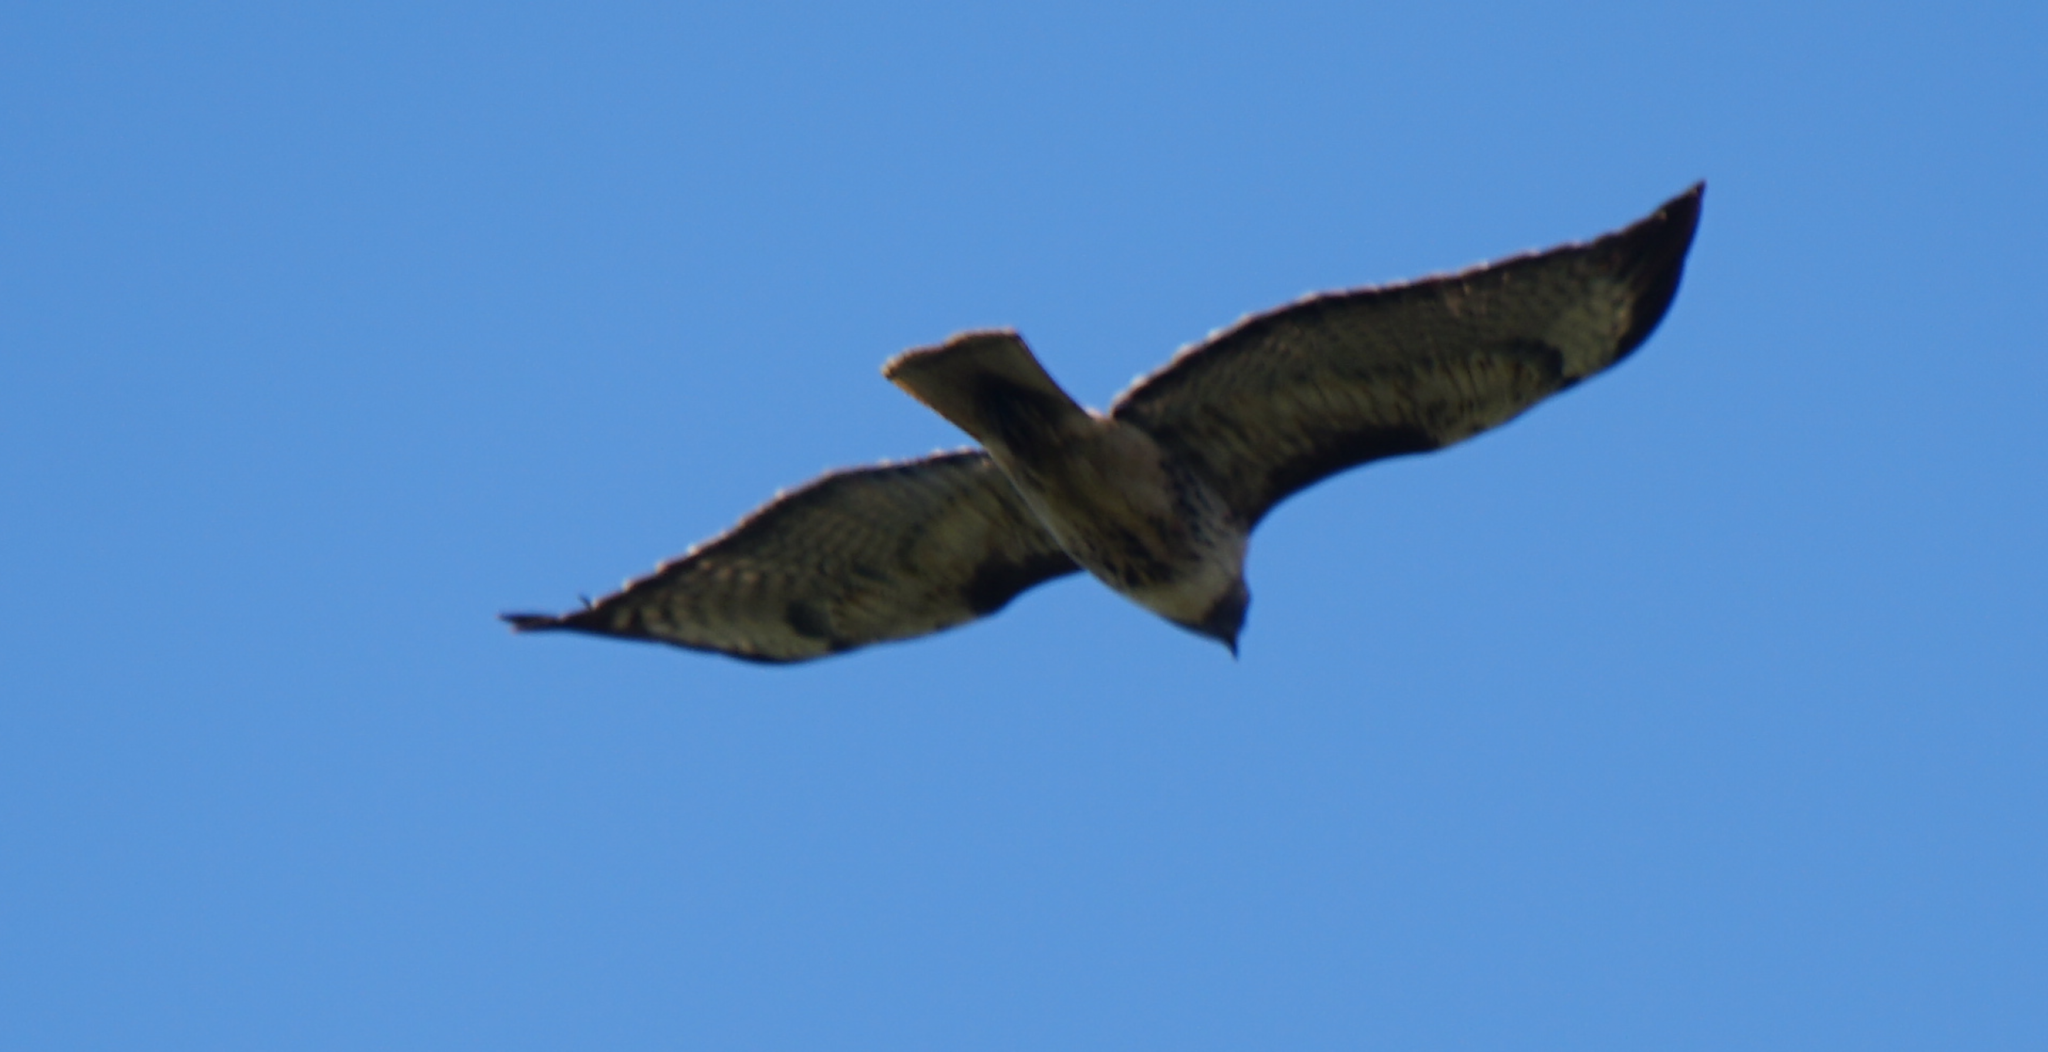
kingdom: Animalia
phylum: Chordata
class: Aves
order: Accipitriformes
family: Accipitridae
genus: Buteo
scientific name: Buteo jamaicensis
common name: Red-tailed hawk
